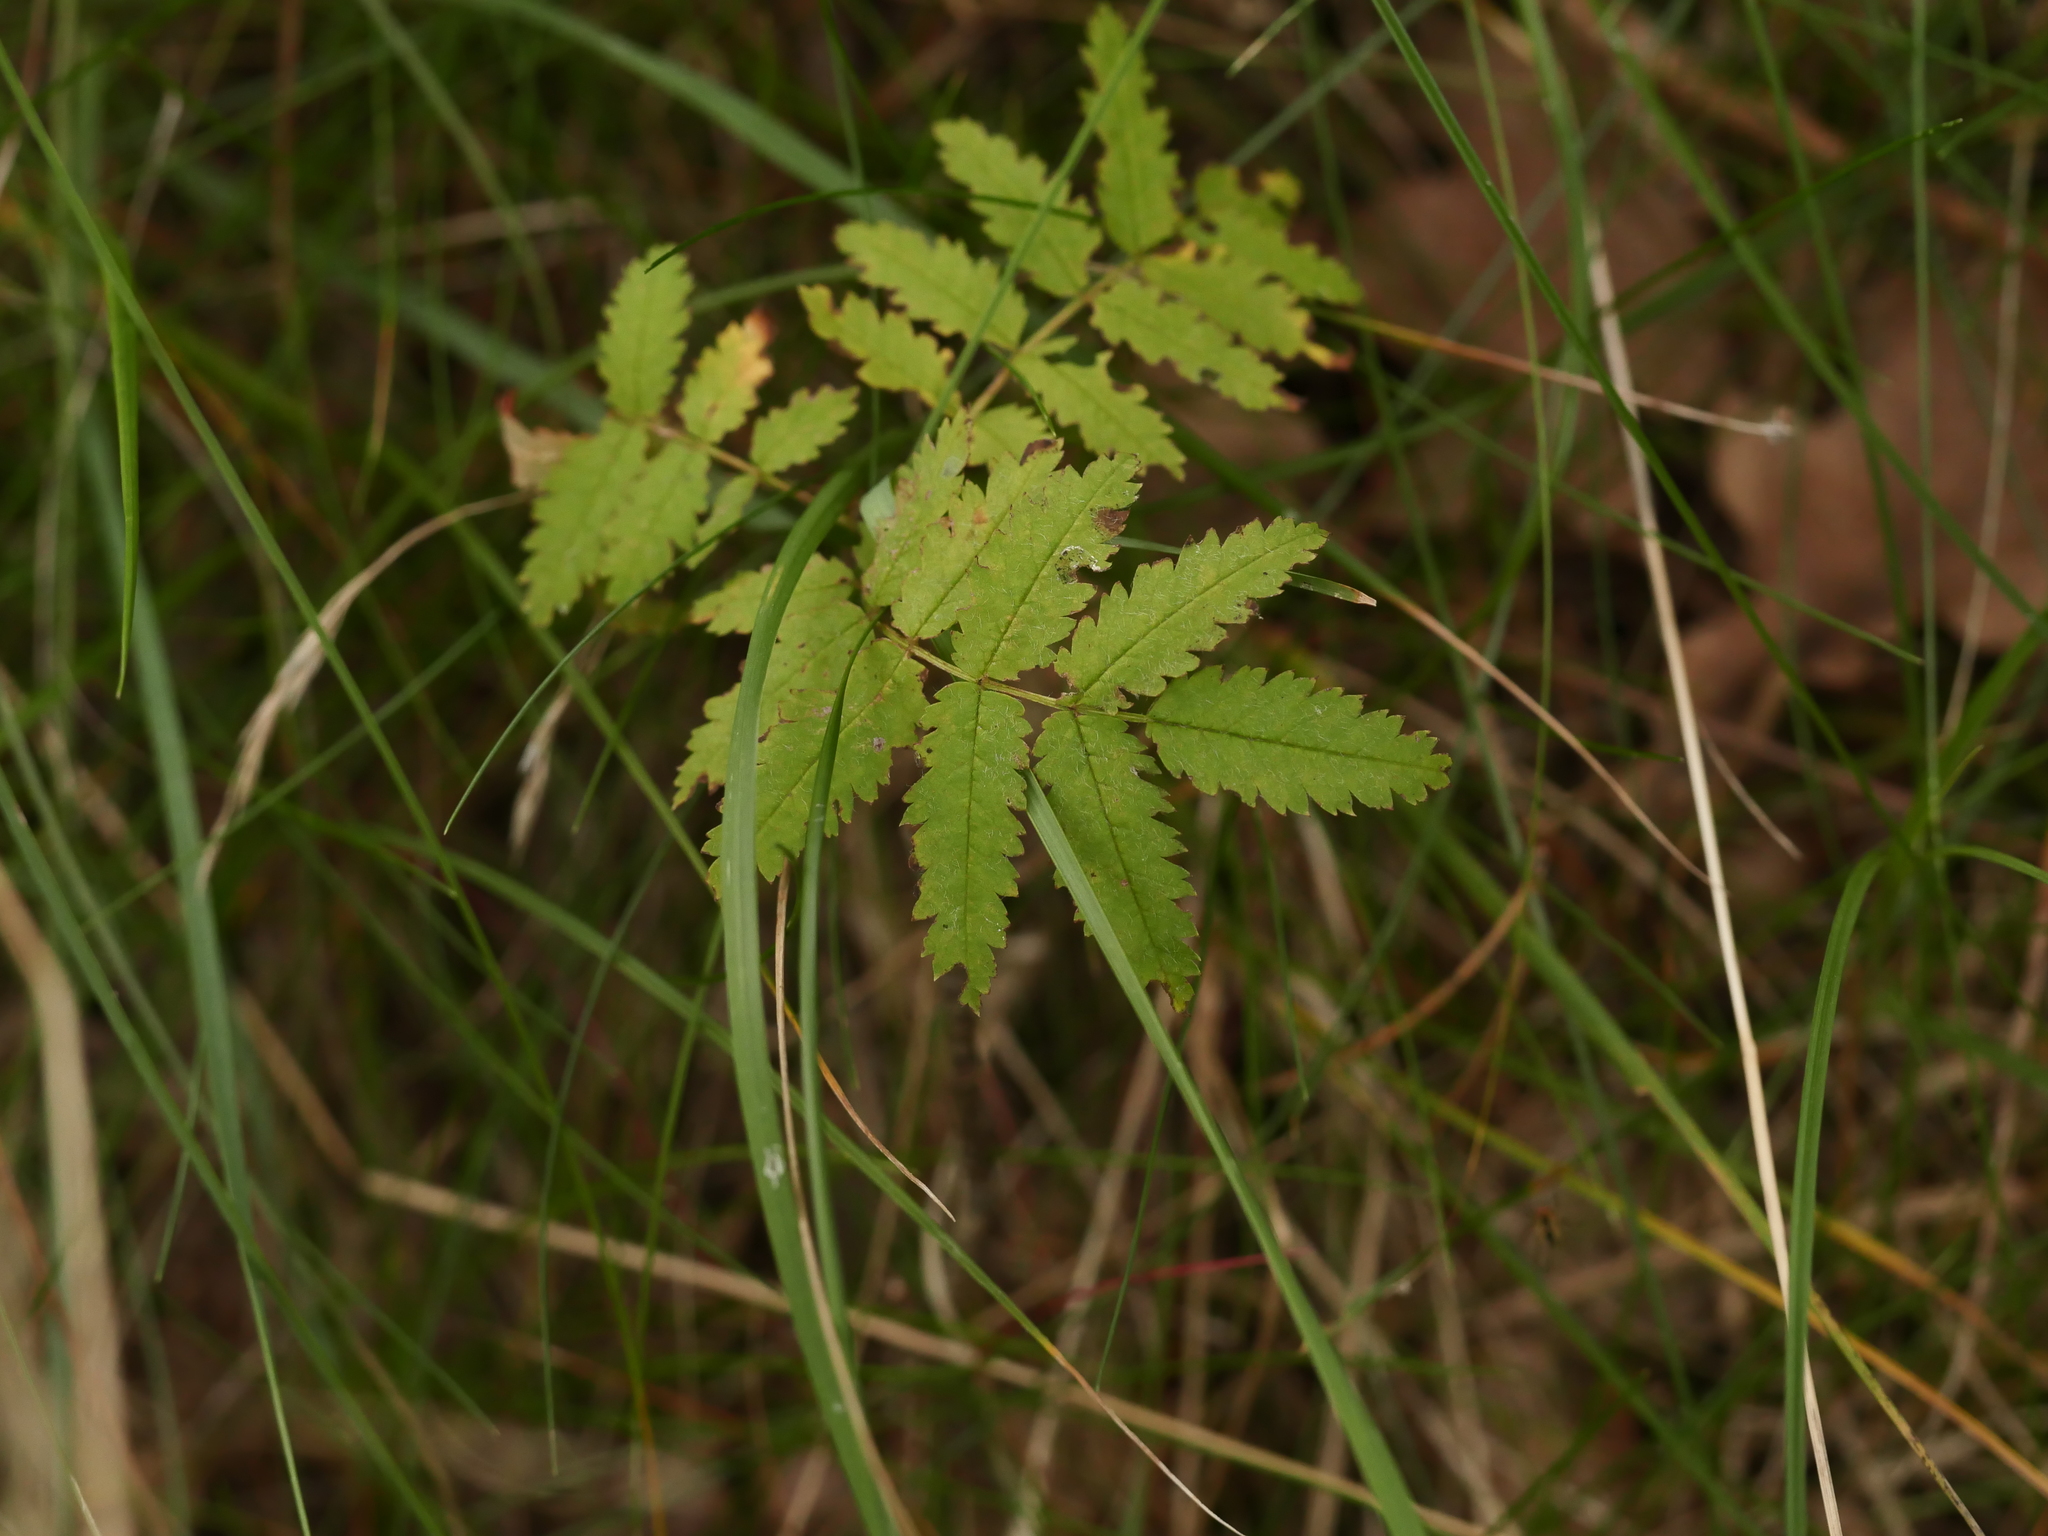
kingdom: Plantae
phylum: Tracheophyta
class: Magnoliopsida
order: Rosales
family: Rosaceae
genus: Sorbus
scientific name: Sorbus aucuparia
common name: Rowan
